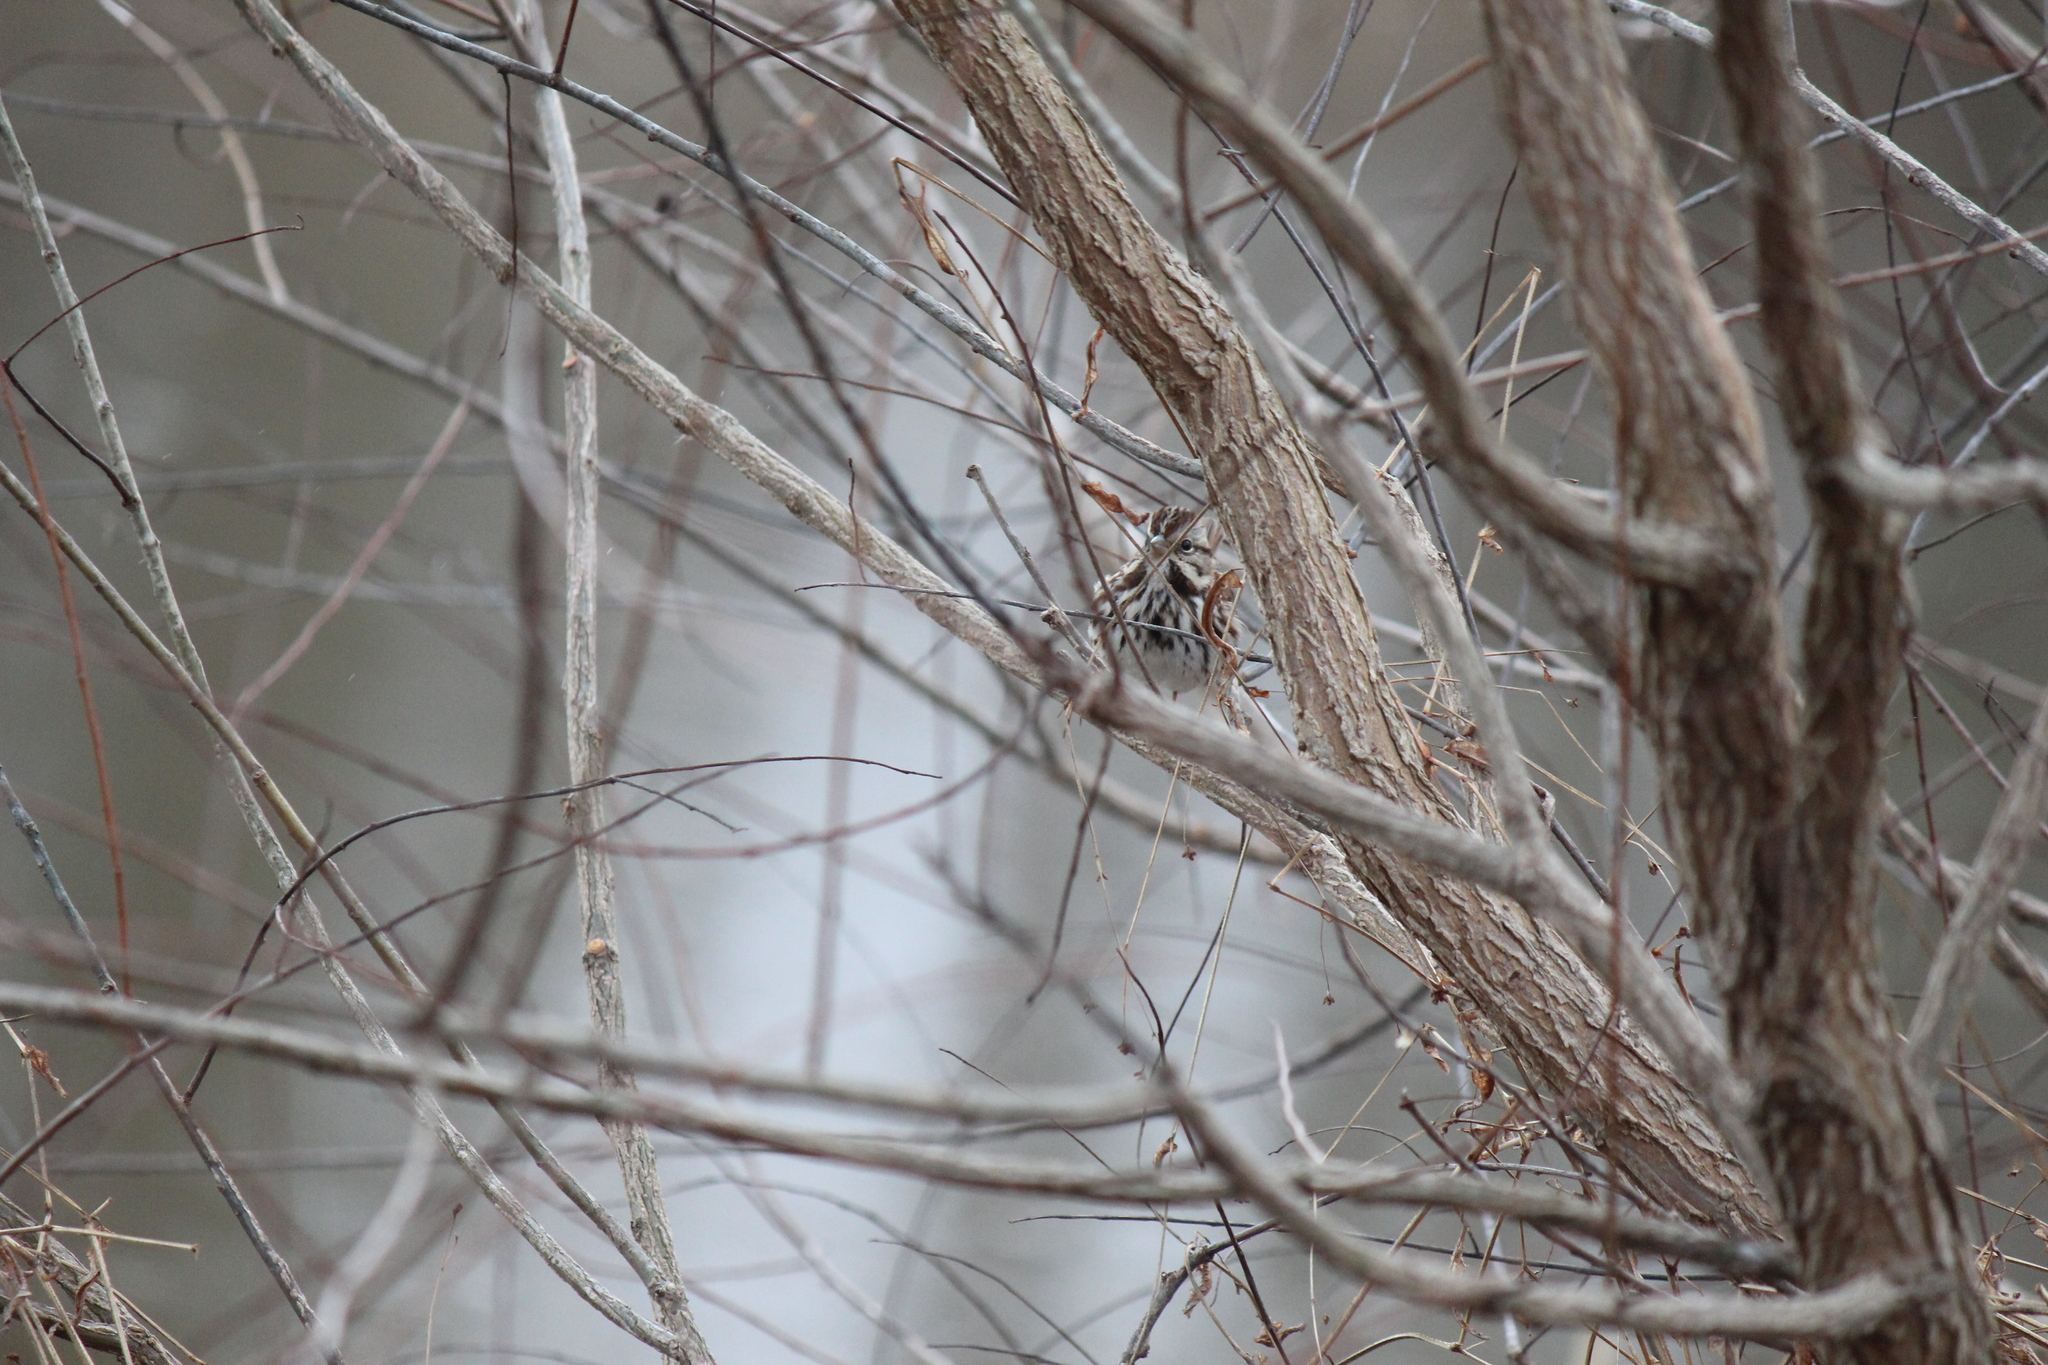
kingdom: Animalia
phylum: Chordata
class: Aves
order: Passeriformes
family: Passerellidae
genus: Melospiza
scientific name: Melospiza melodia
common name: Song sparrow
